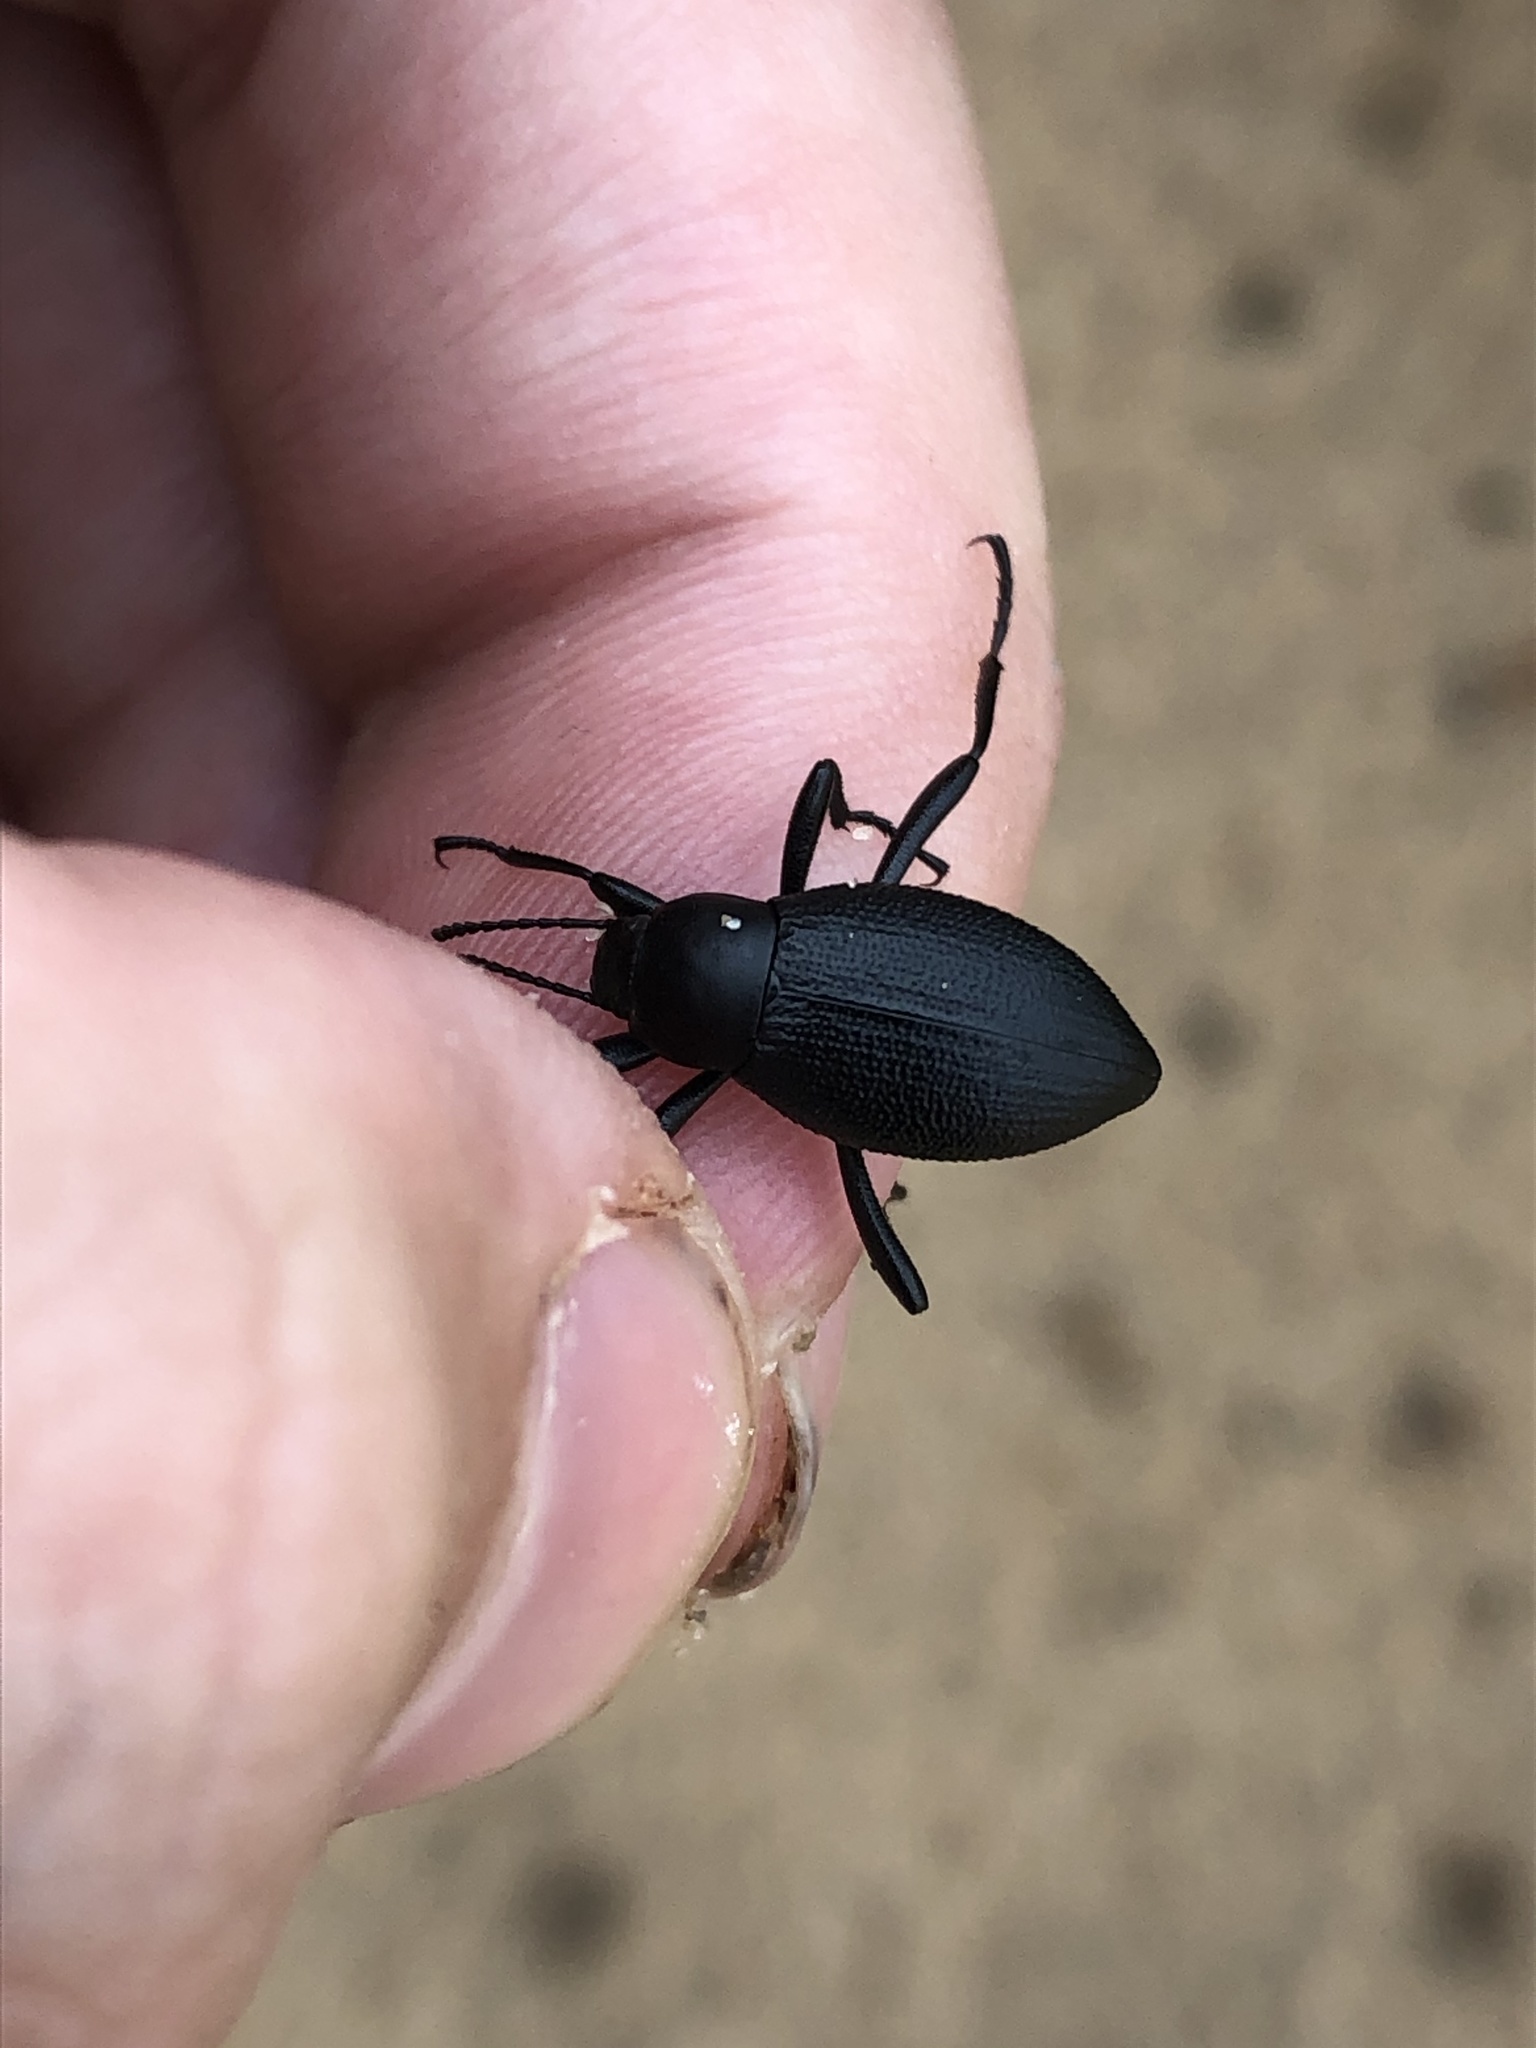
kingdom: Animalia
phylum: Arthropoda
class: Insecta
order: Coleoptera
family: Tenebrionidae
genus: Eleodes
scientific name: Eleodes extricata
